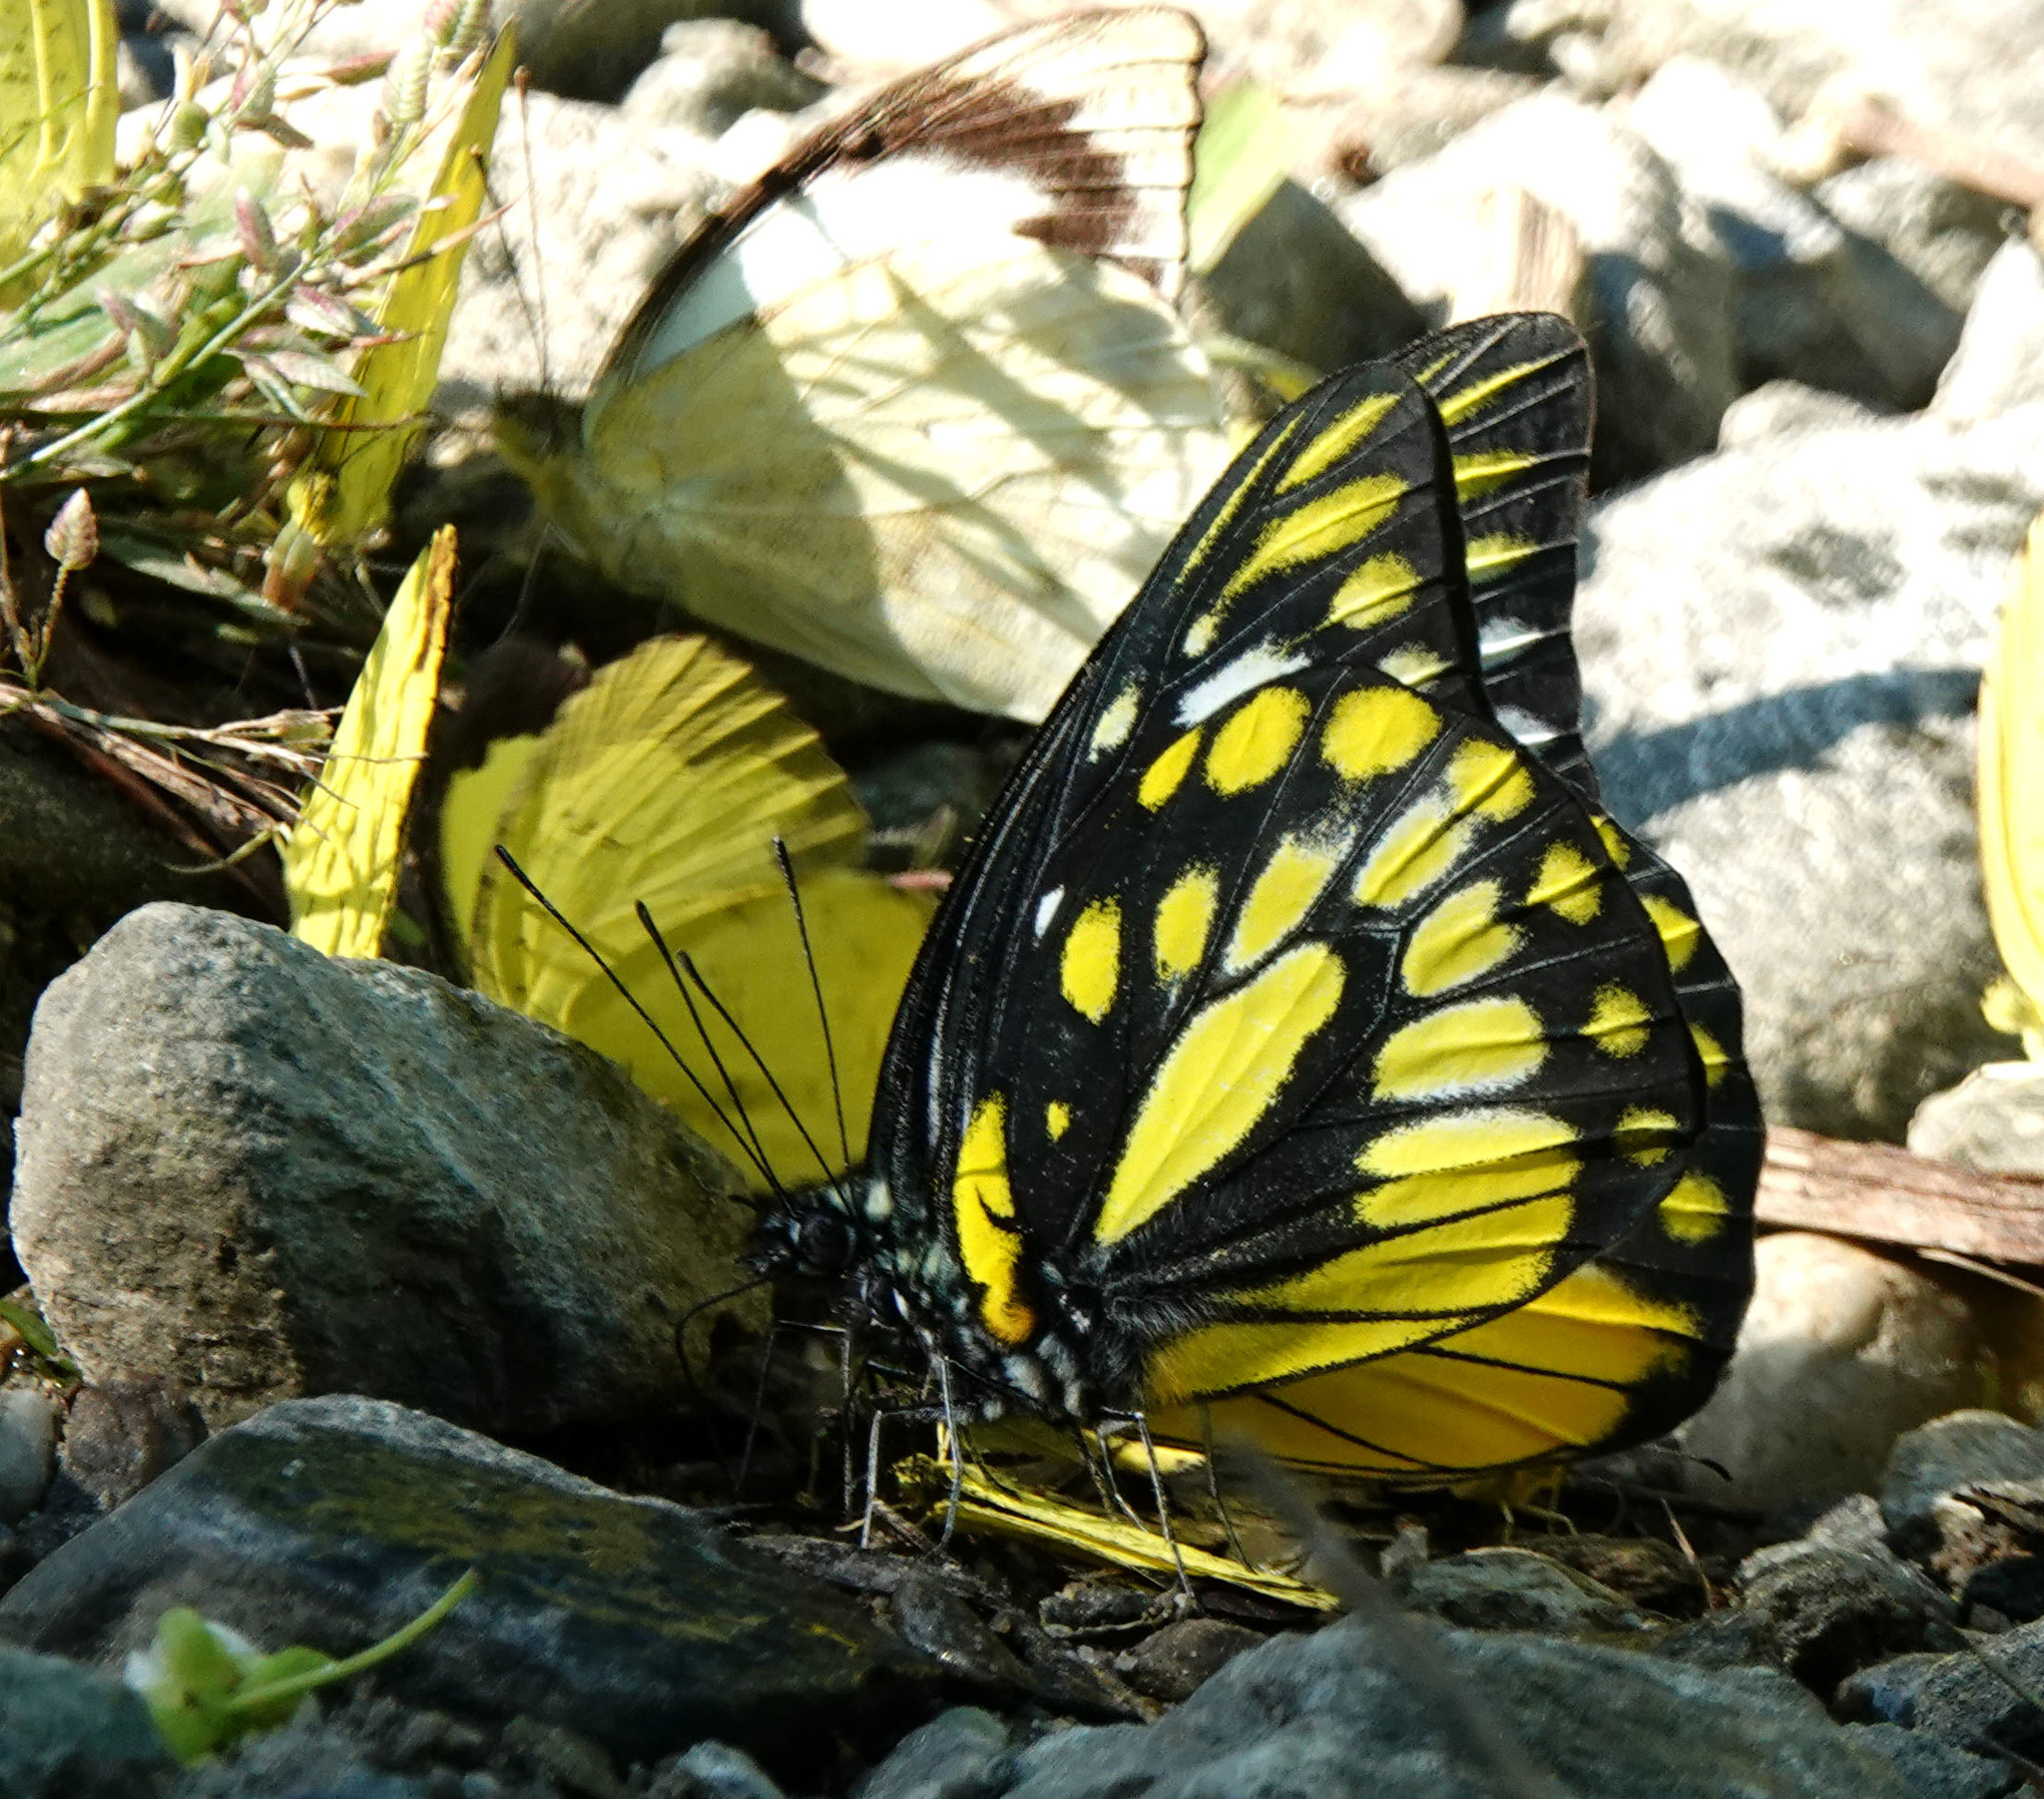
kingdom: Animalia
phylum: Arthropoda
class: Insecta
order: Lepidoptera
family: Pieridae
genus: Prioneris
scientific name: Prioneris thestylis
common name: Spotted sawtooth
